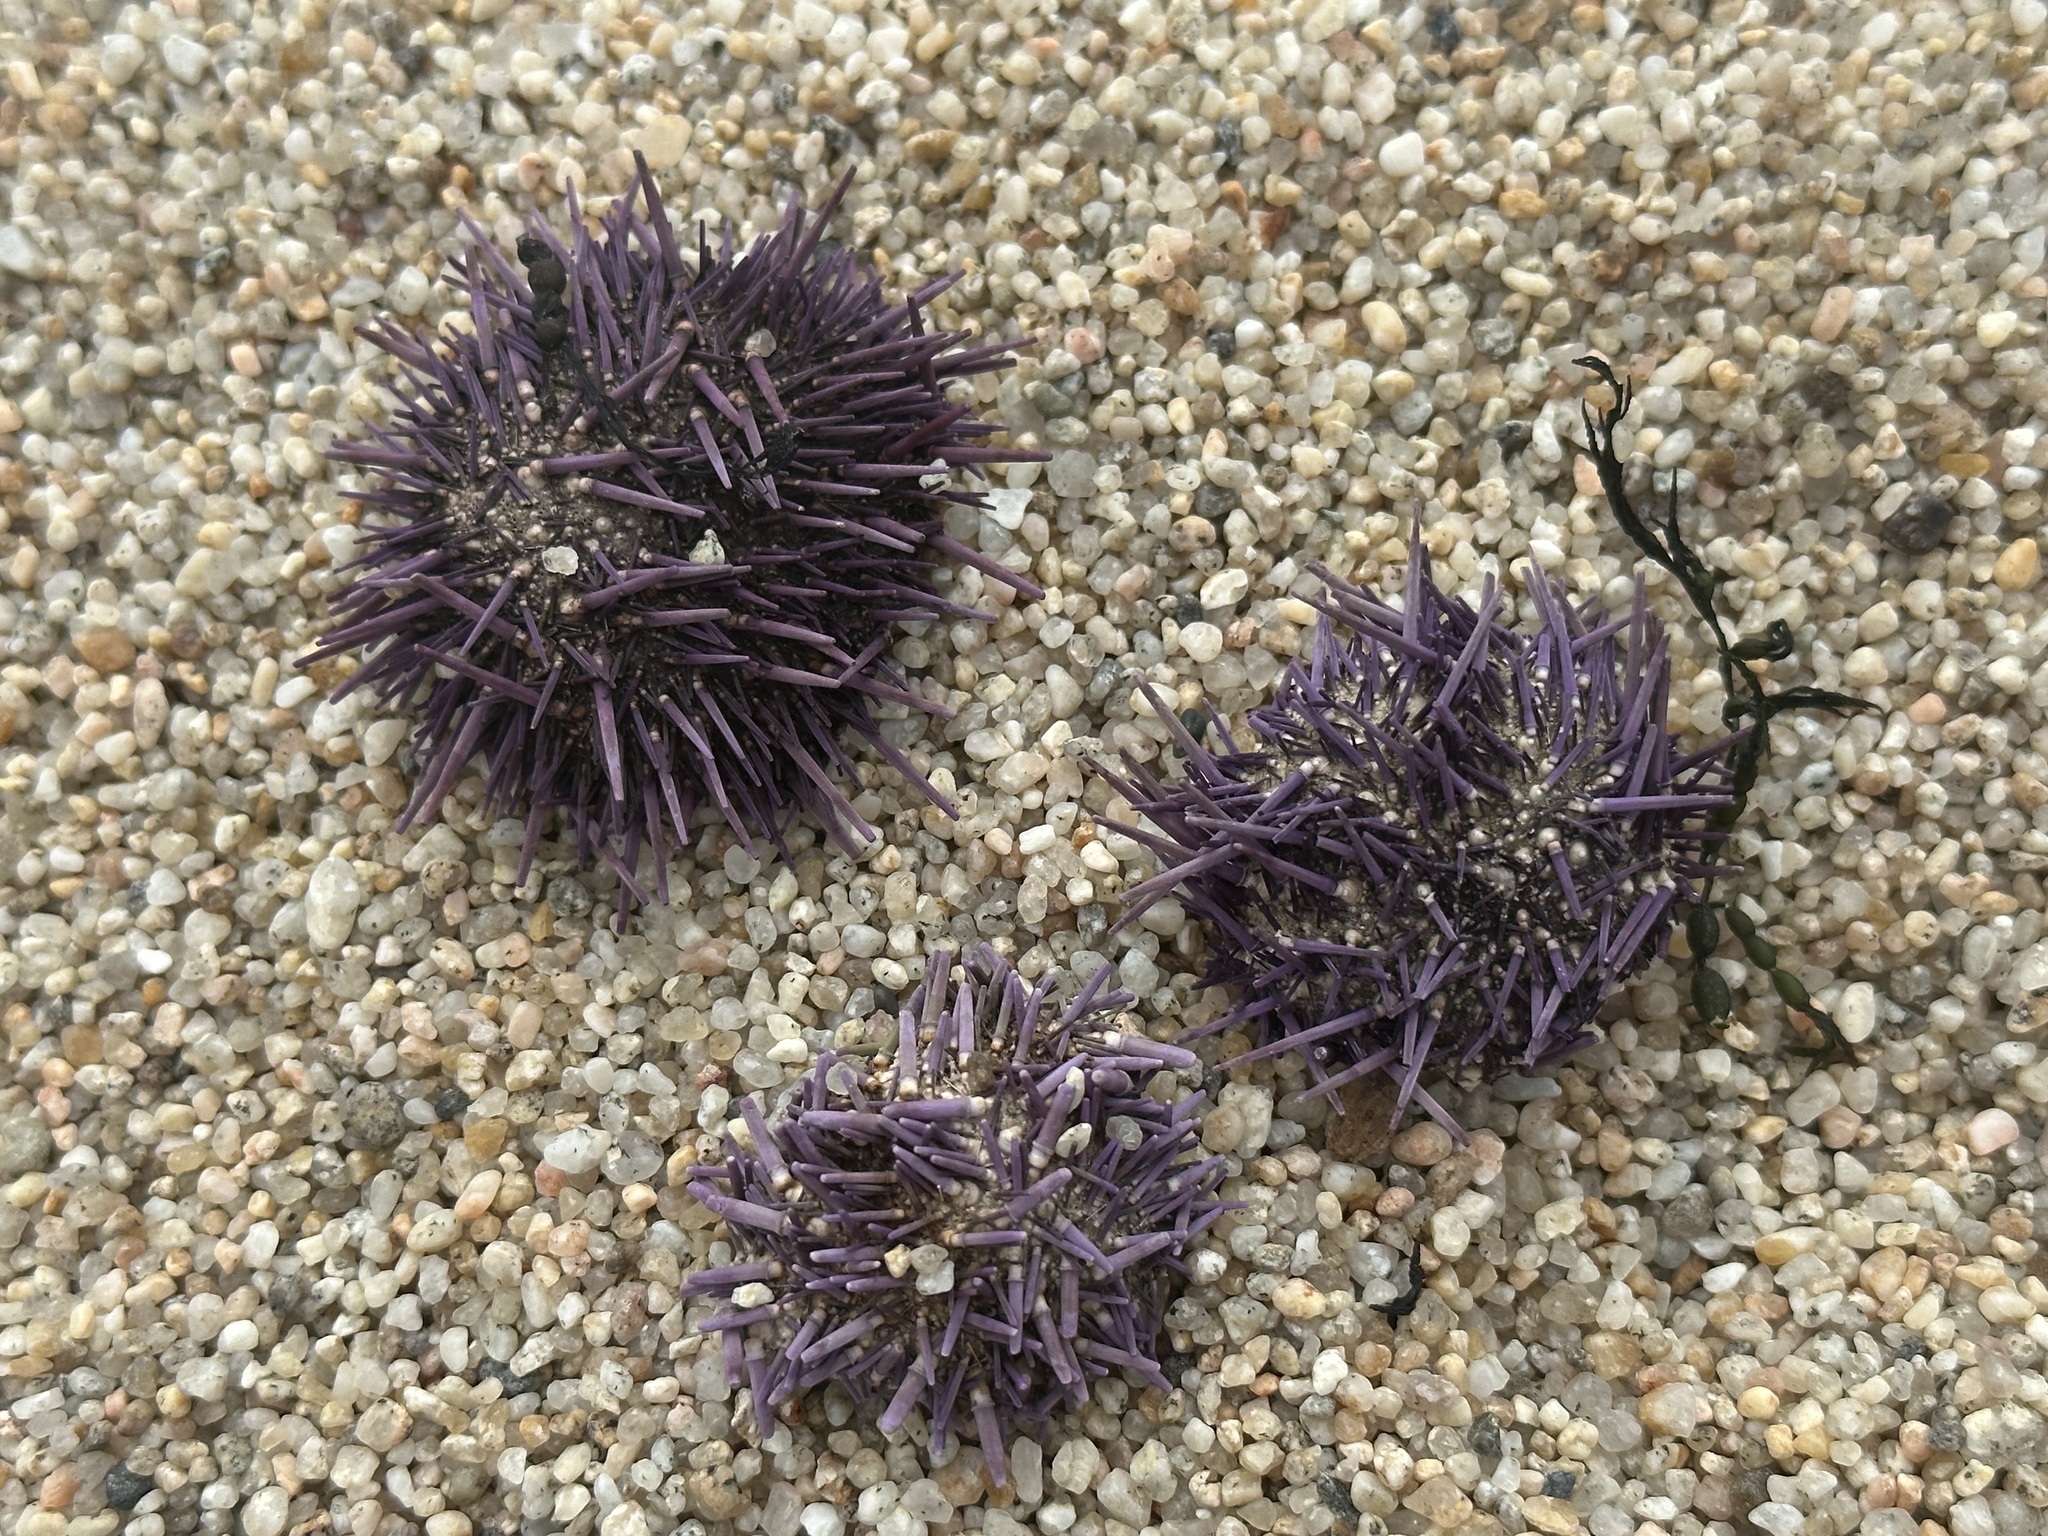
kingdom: Animalia
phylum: Echinodermata
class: Echinoidea
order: Camarodonta
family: Strongylocentrotidae
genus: Strongylocentrotus
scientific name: Strongylocentrotus purpuratus
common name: Purple sea urchin
